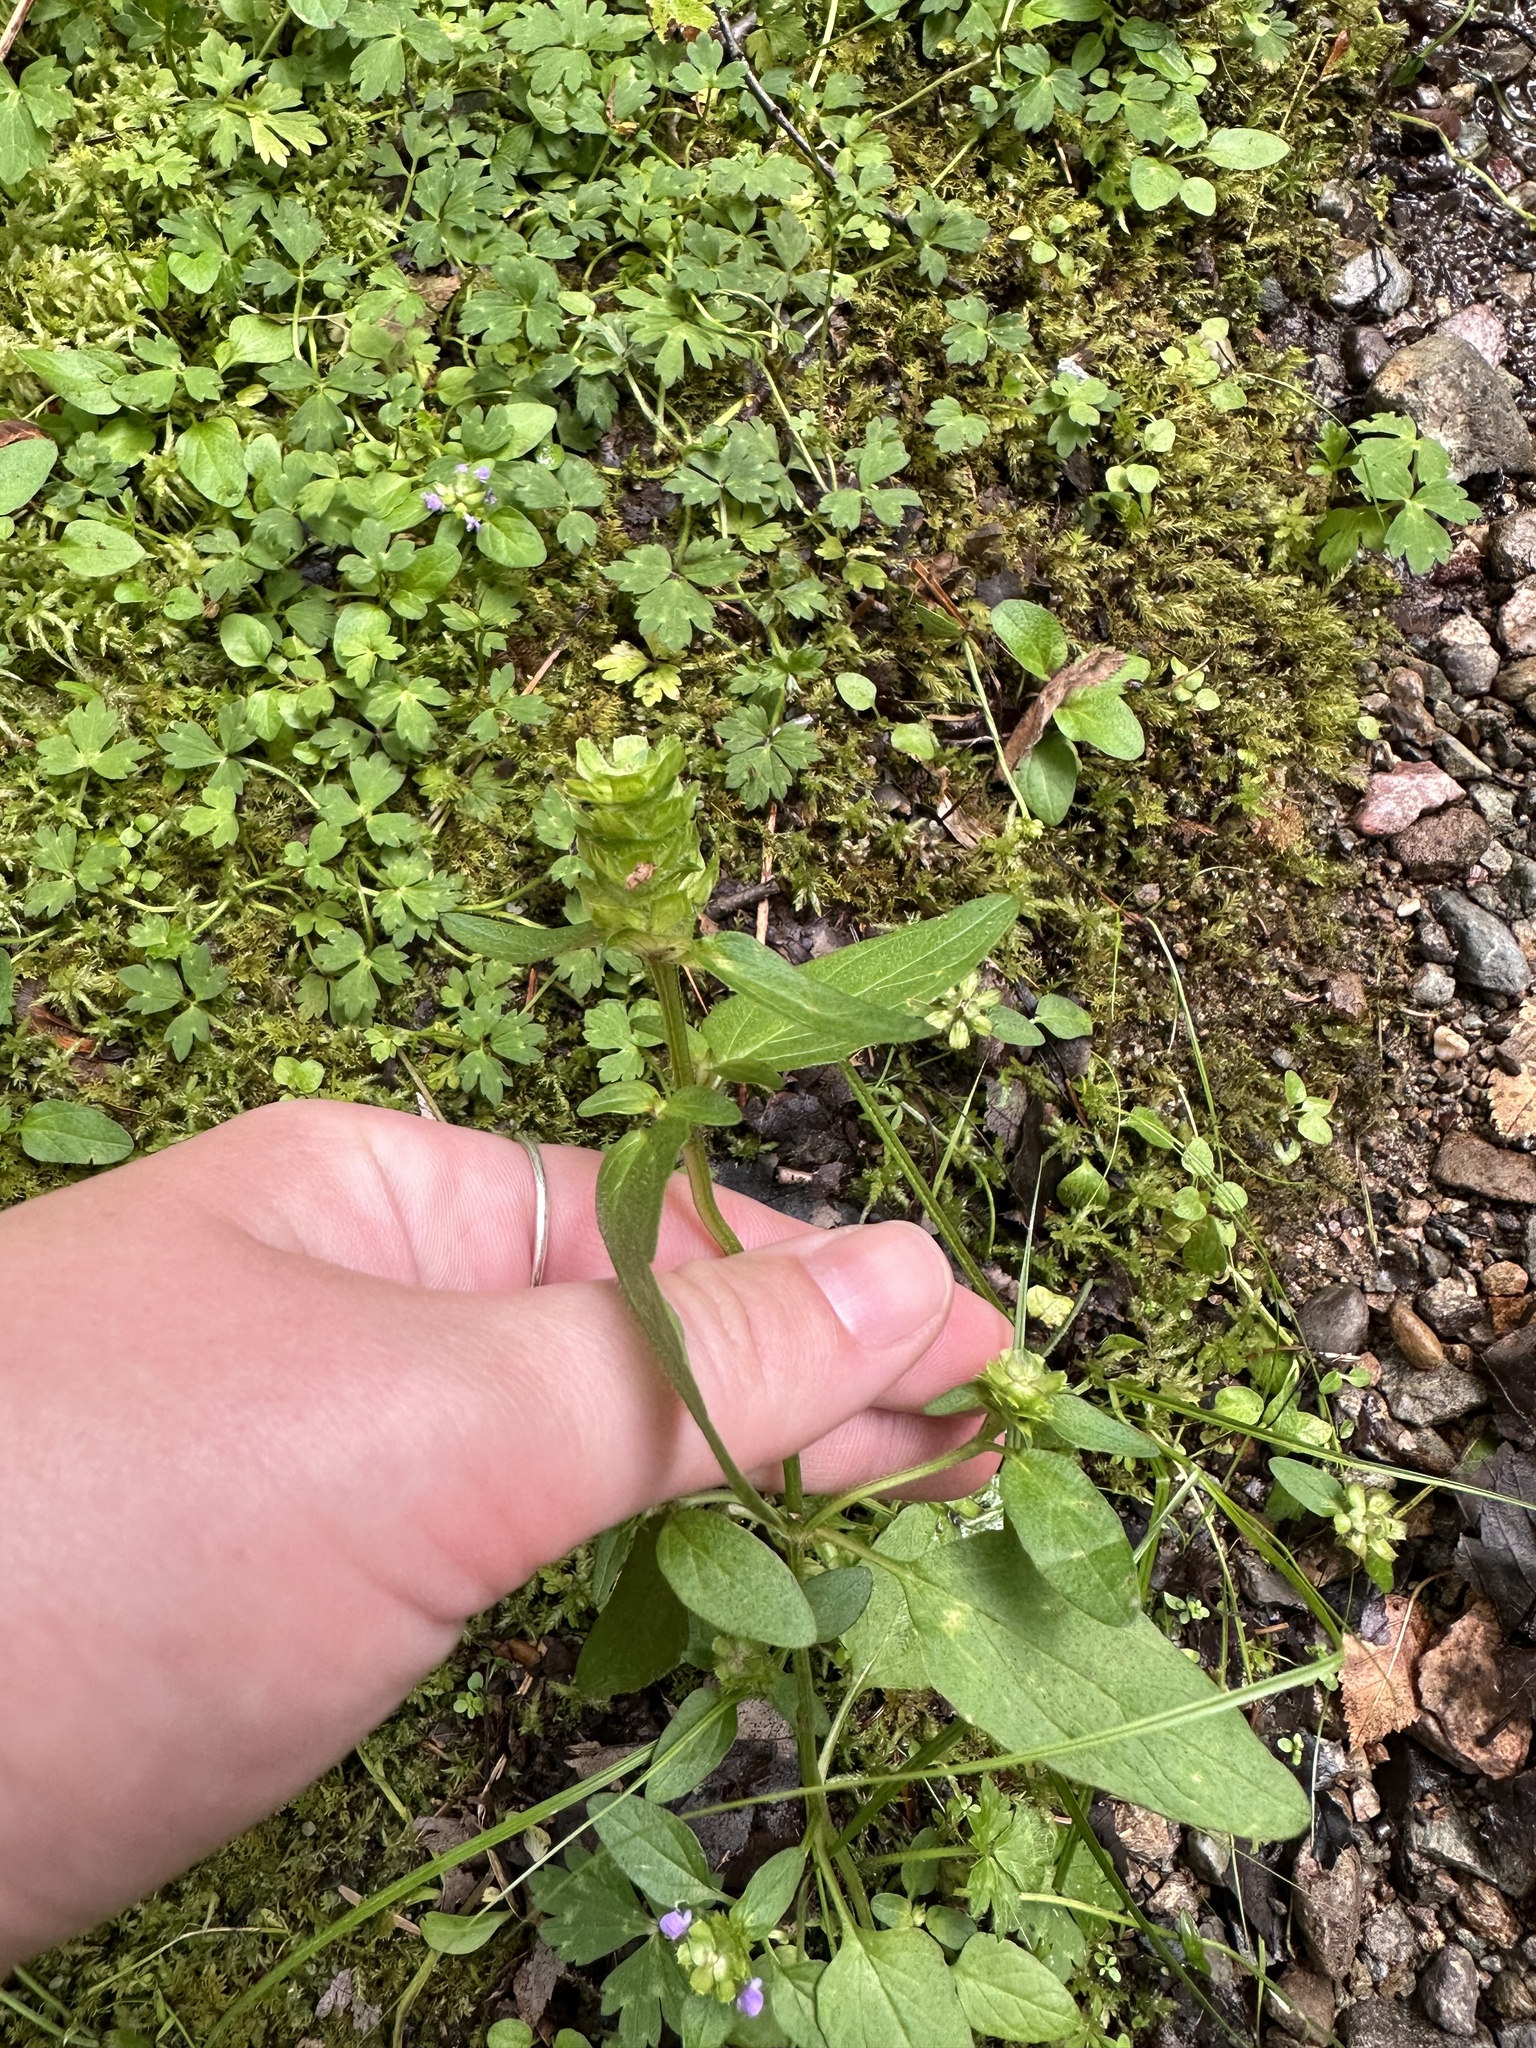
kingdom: Plantae
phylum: Tracheophyta
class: Magnoliopsida
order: Lamiales
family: Lamiaceae
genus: Prunella
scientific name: Prunella vulgaris
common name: Heal-all
